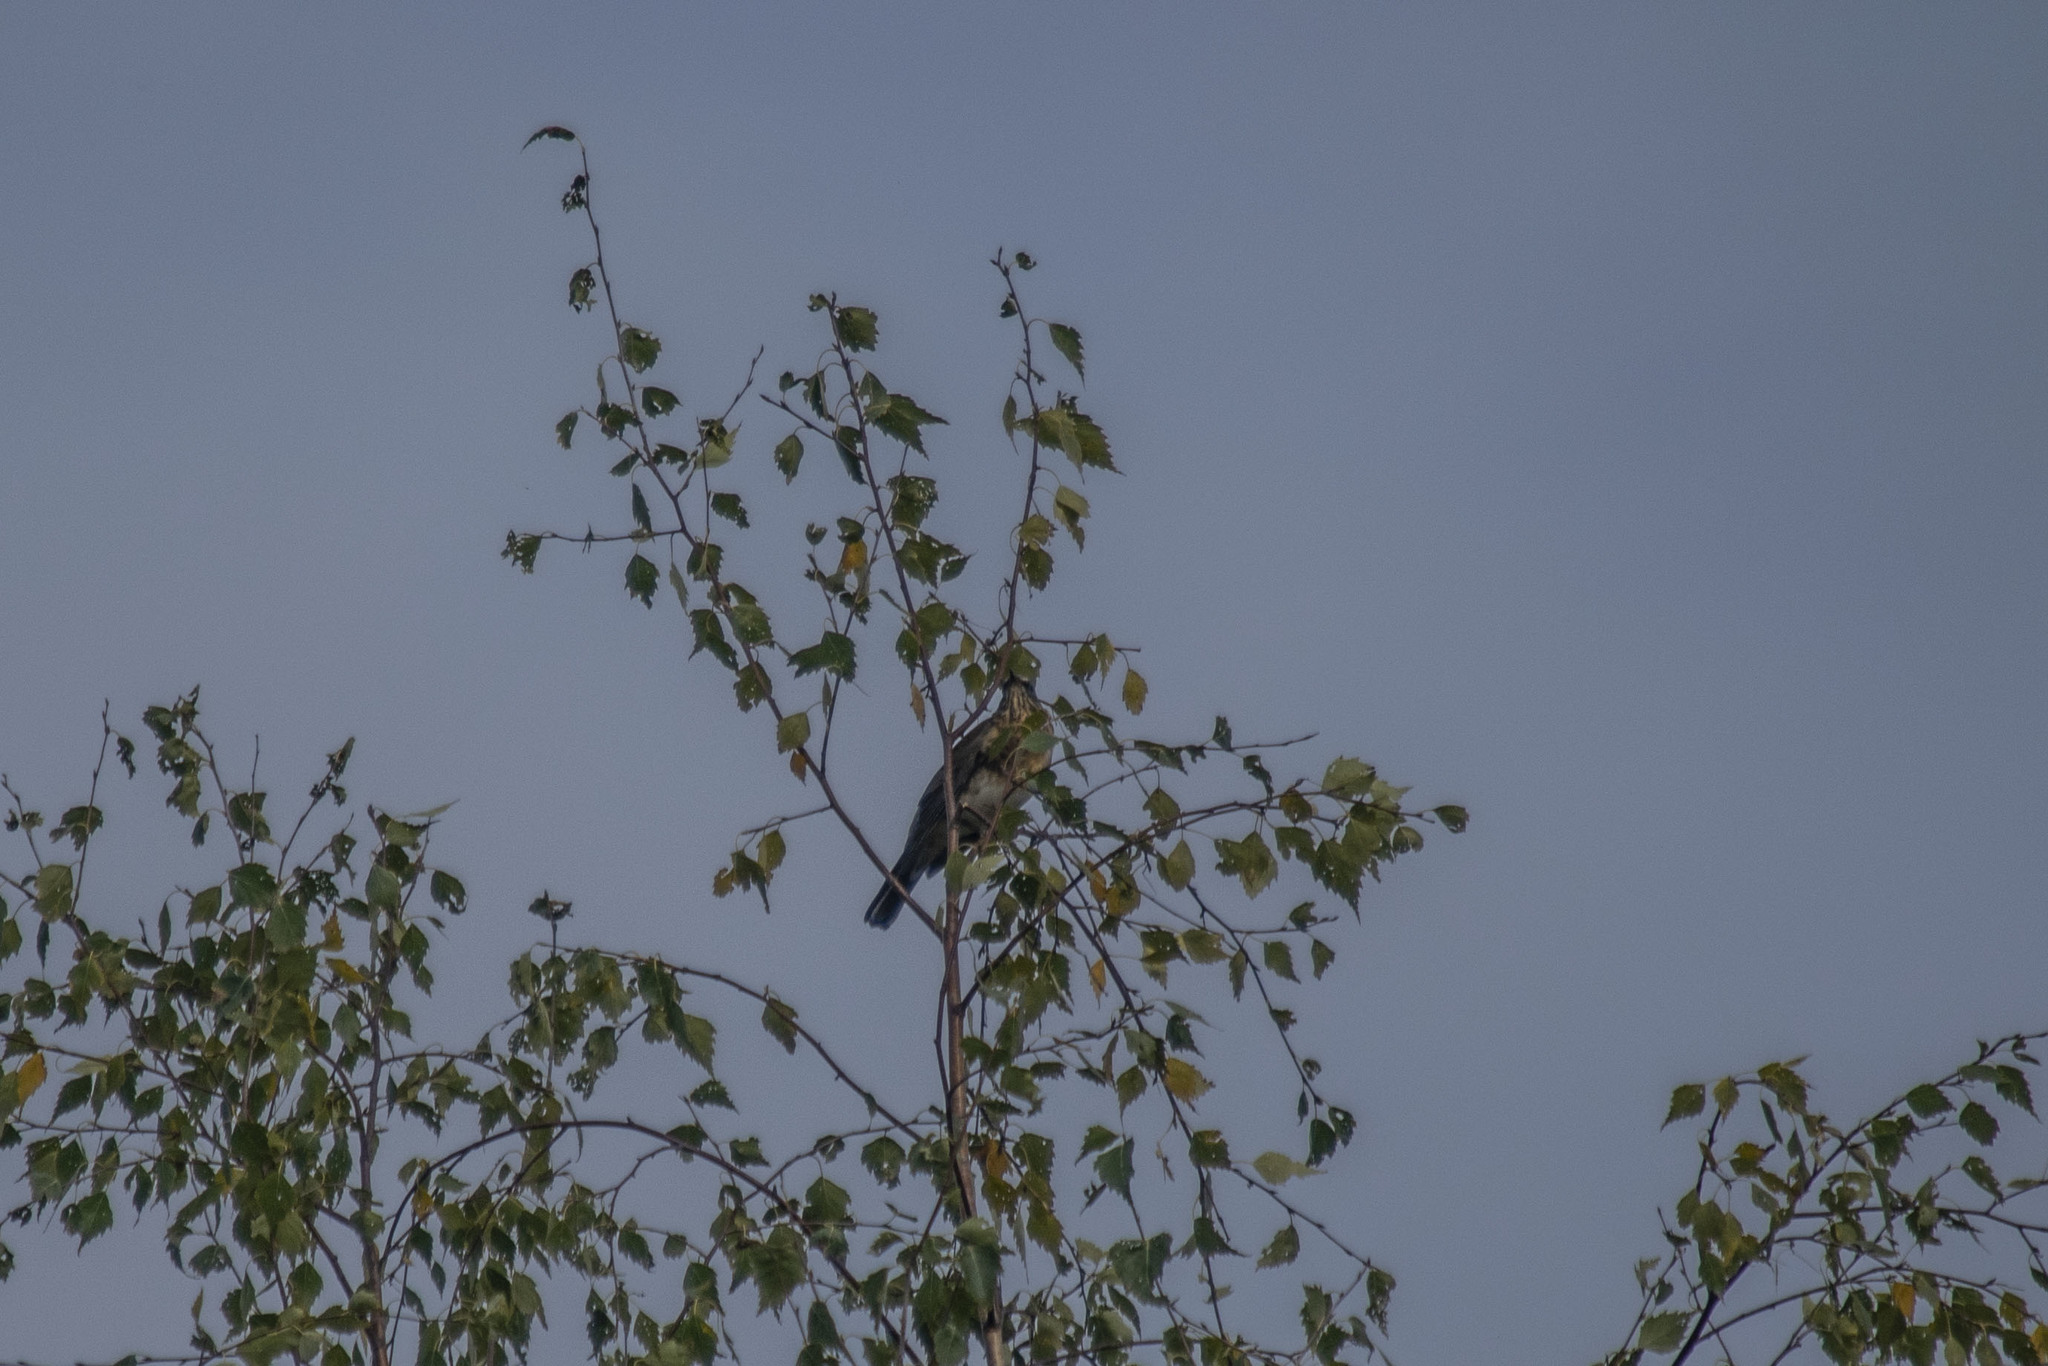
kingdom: Animalia
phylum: Chordata
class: Aves
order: Passeriformes
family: Turdidae
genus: Turdus
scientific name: Turdus pilaris
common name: Fieldfare
